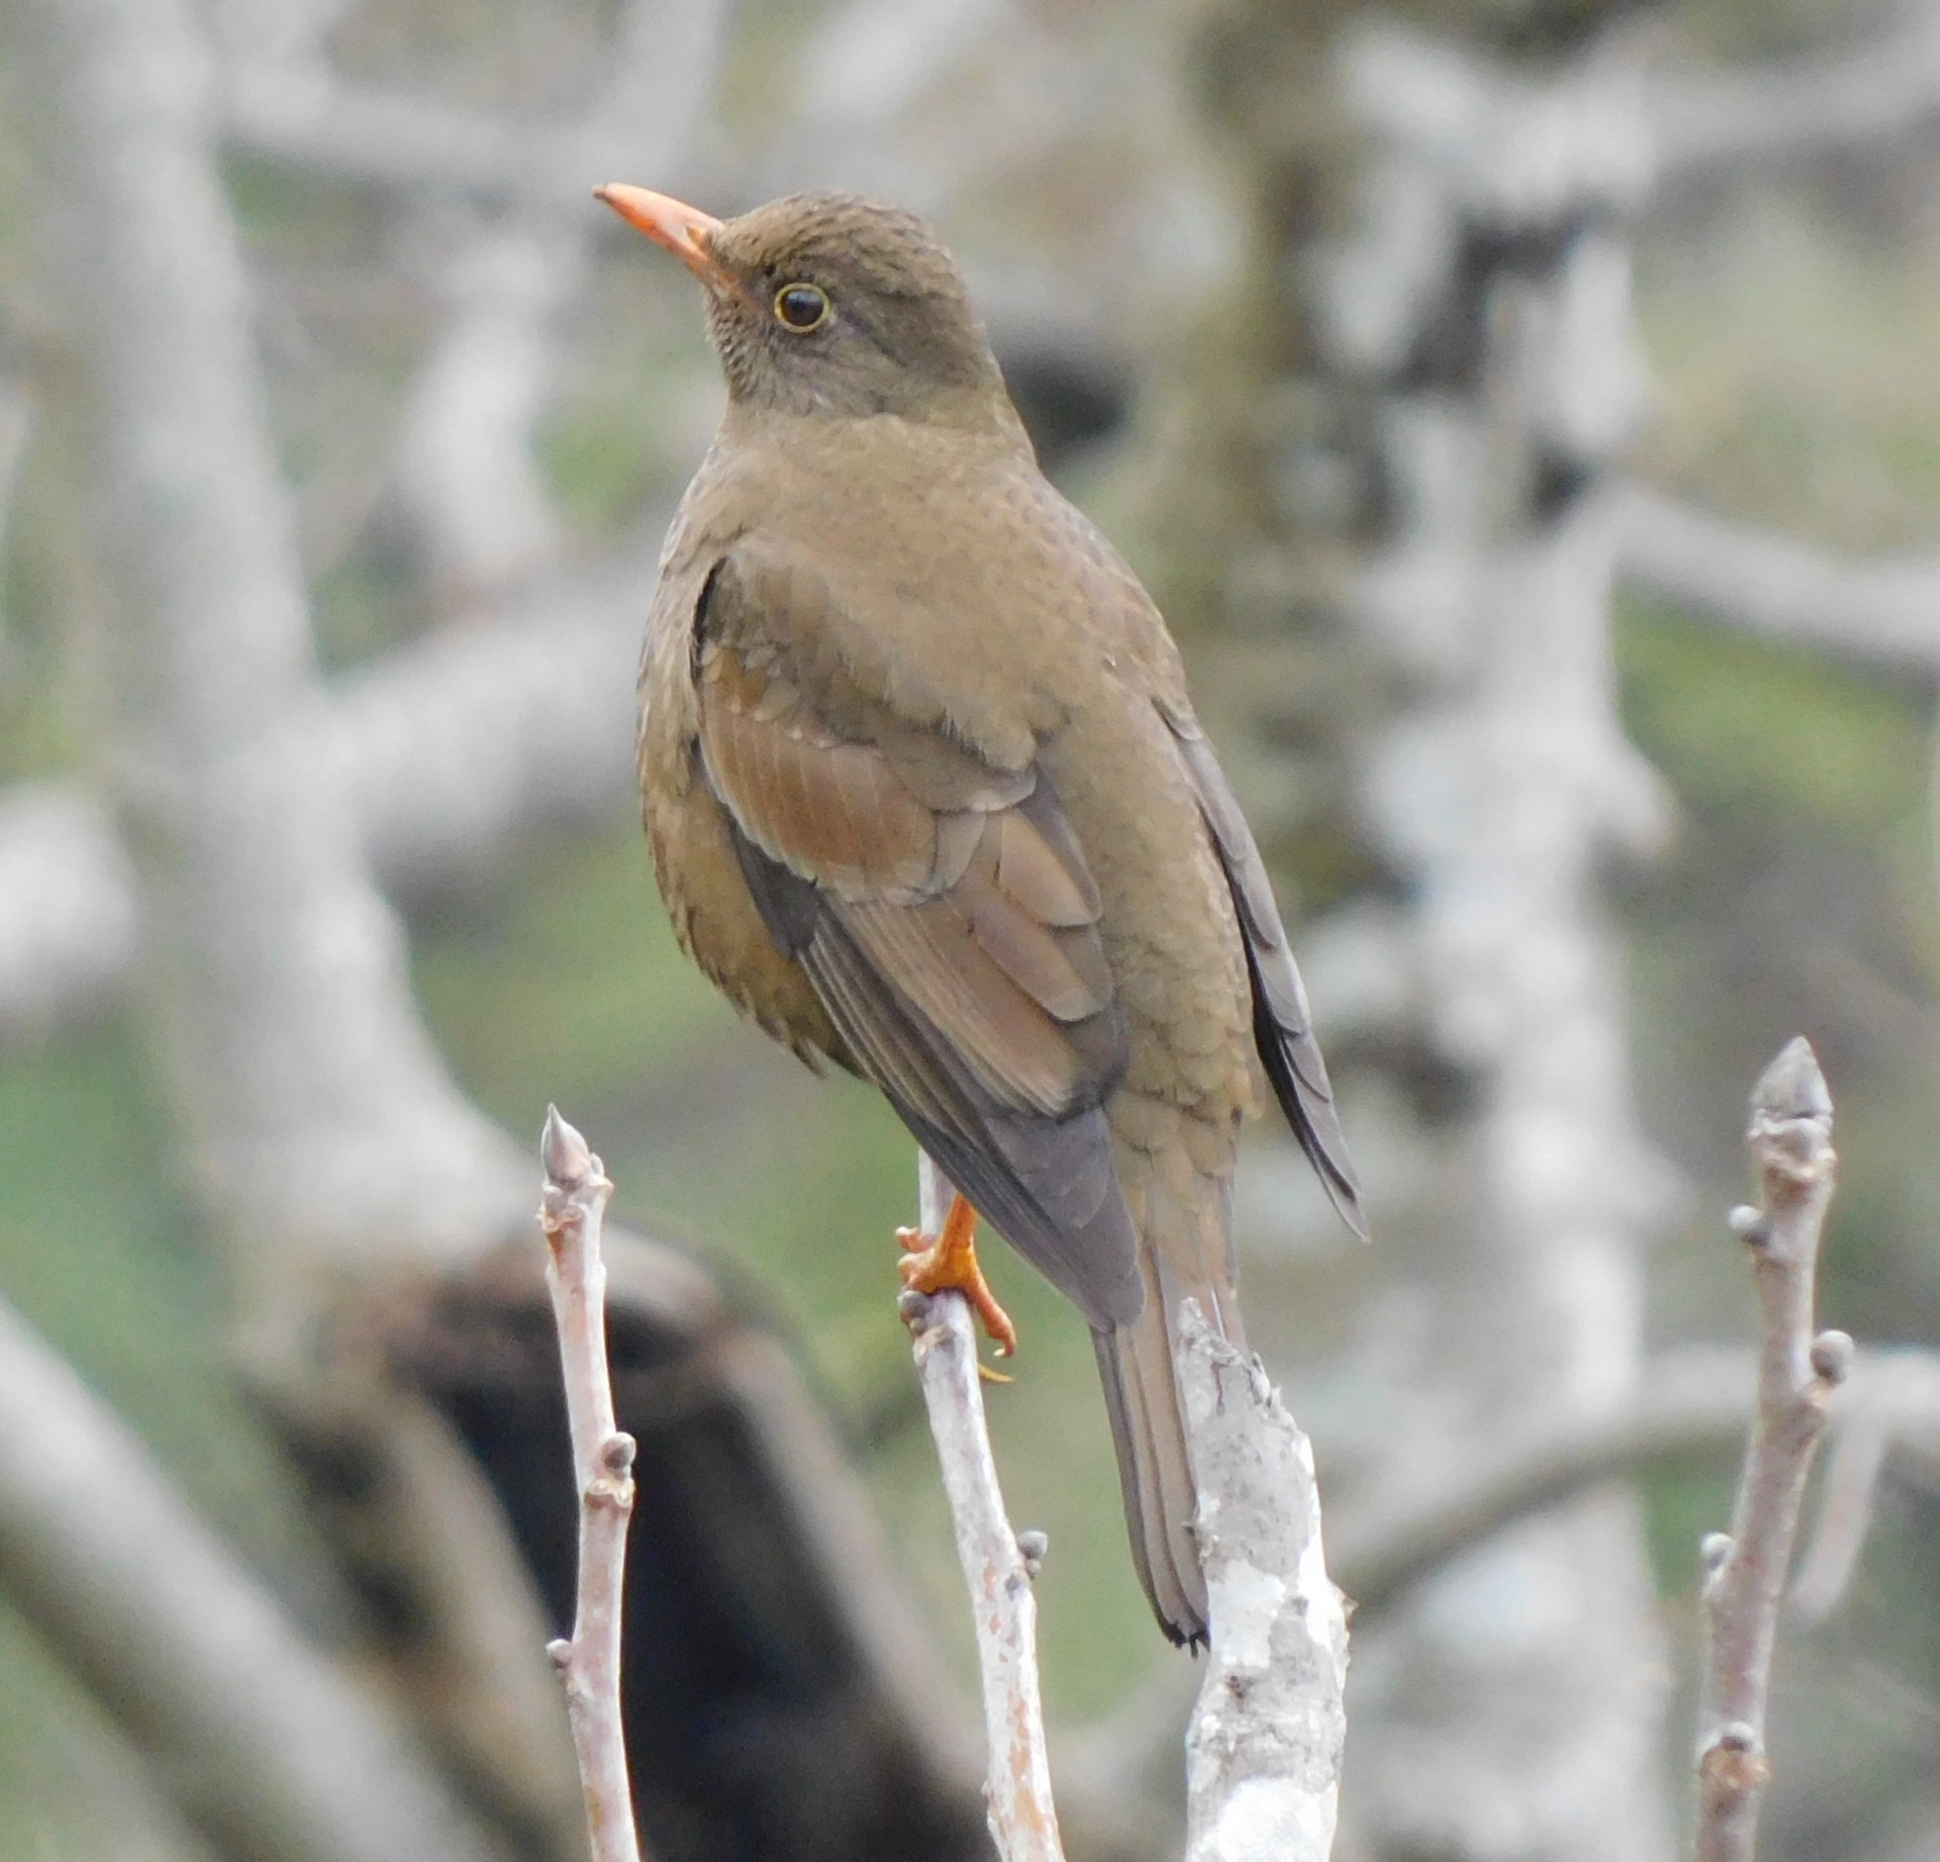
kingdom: Animalia
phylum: Chordata
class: Aves
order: Passeriformes
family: Turdidae
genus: Turdus
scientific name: Turdus boulboul
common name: Grey-winged blackbird
